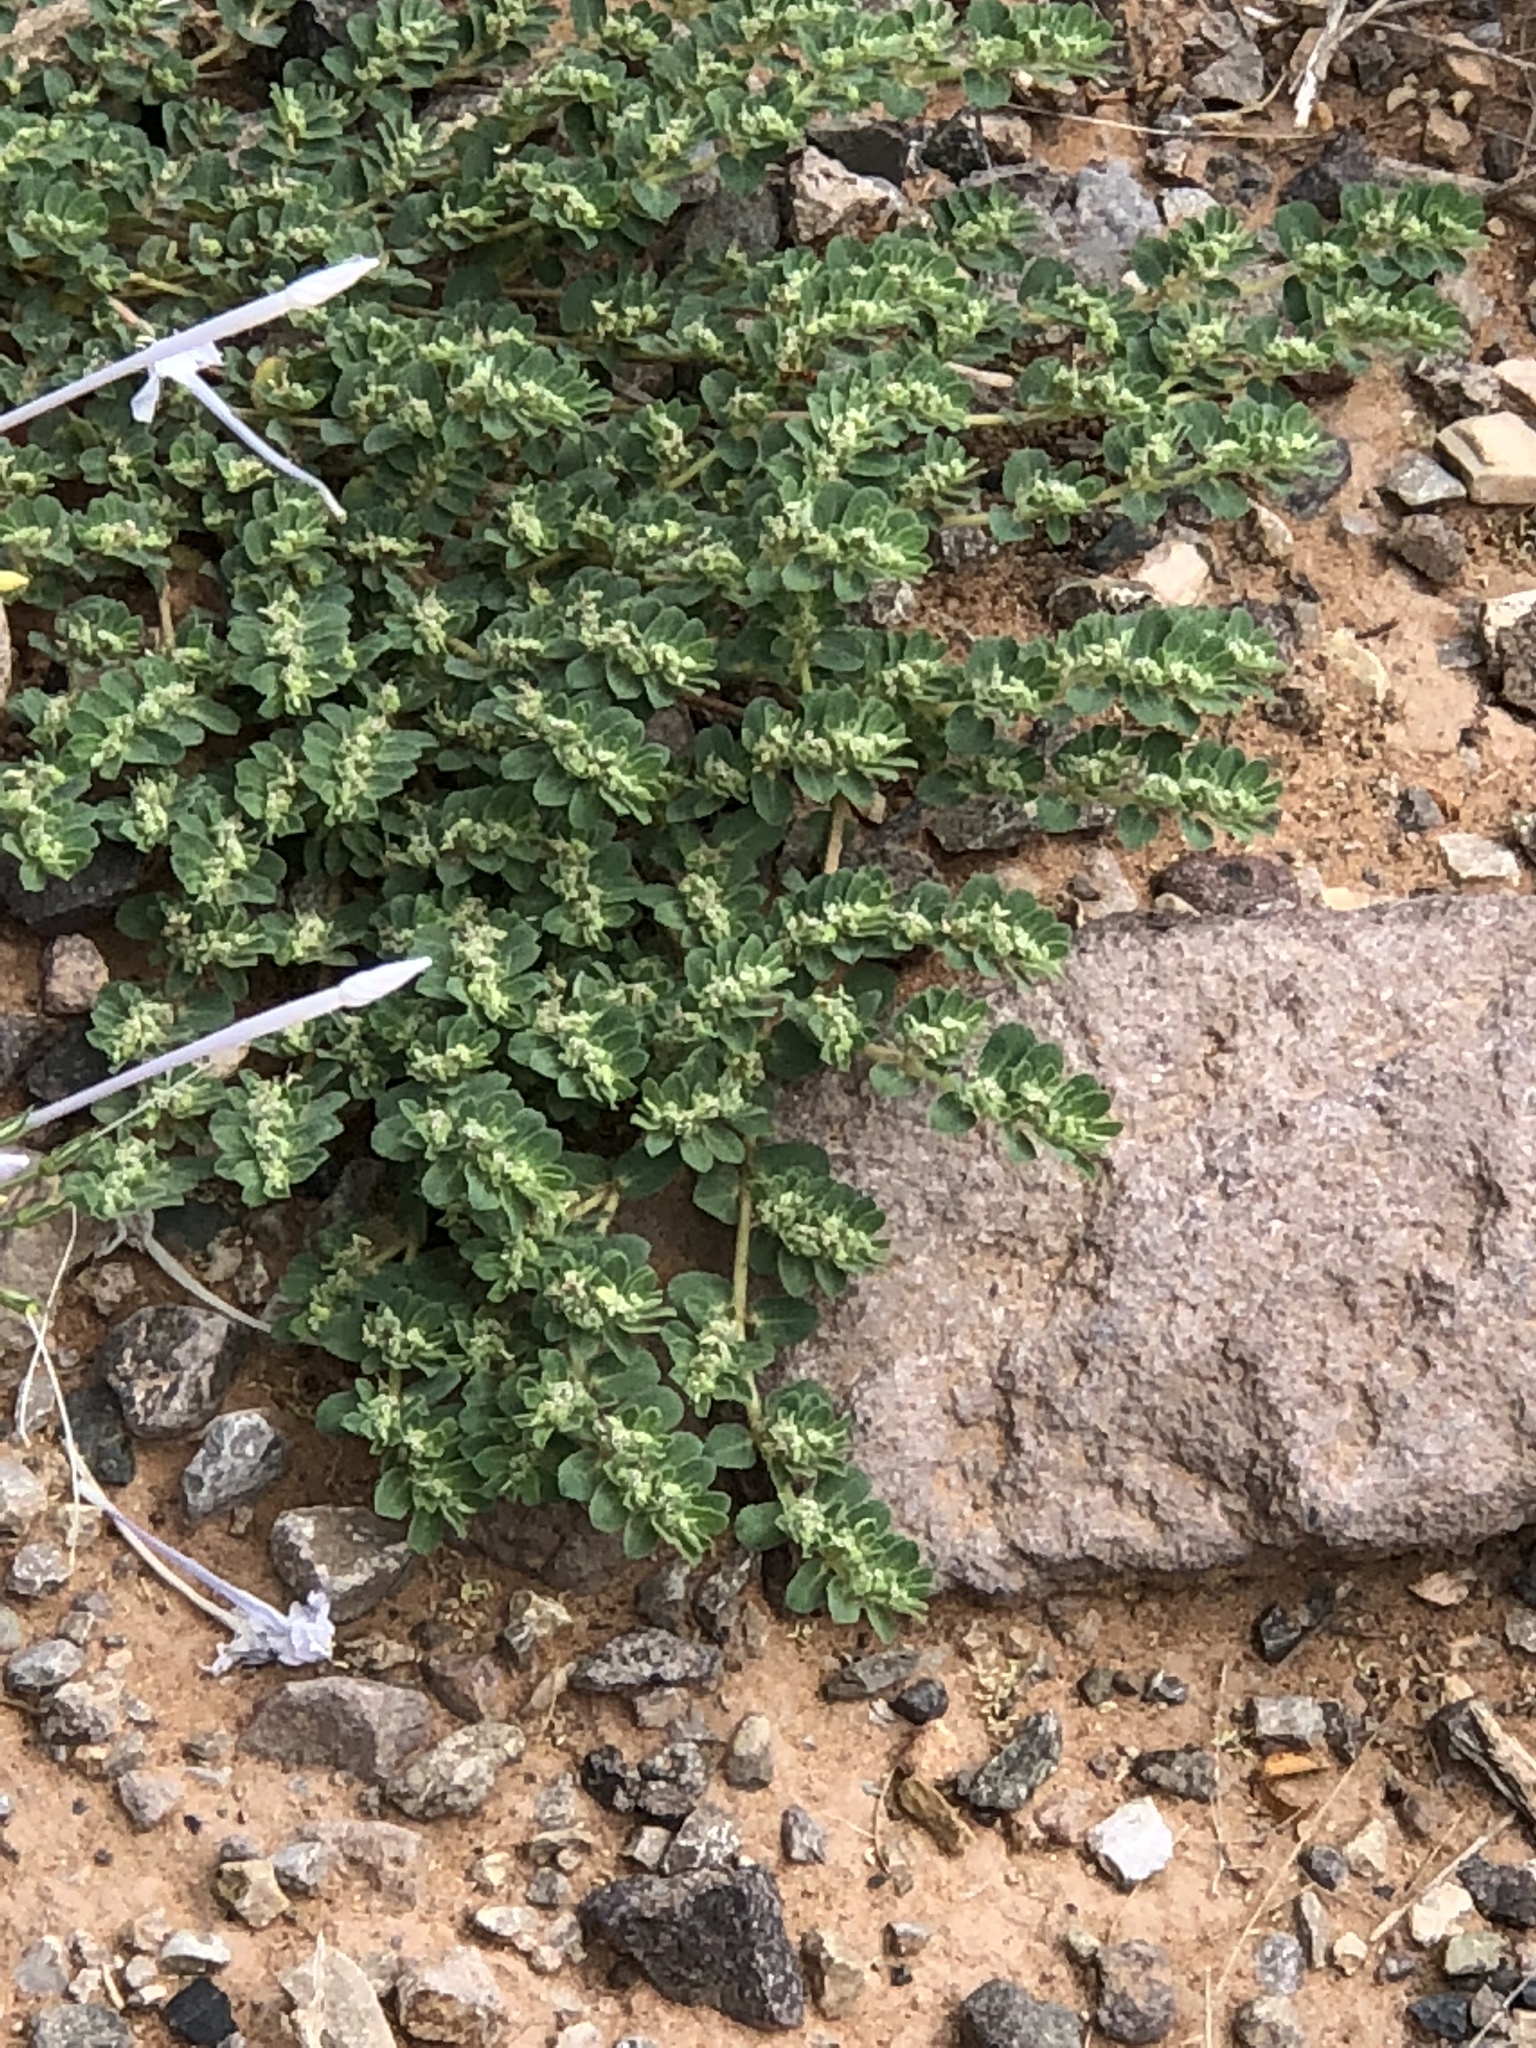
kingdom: Plantae
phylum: Tracheophyta
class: Magnoliopsida
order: Malpighiales
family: Euphorbiaceae
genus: Euphorbia
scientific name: Euphorbia stictospora
